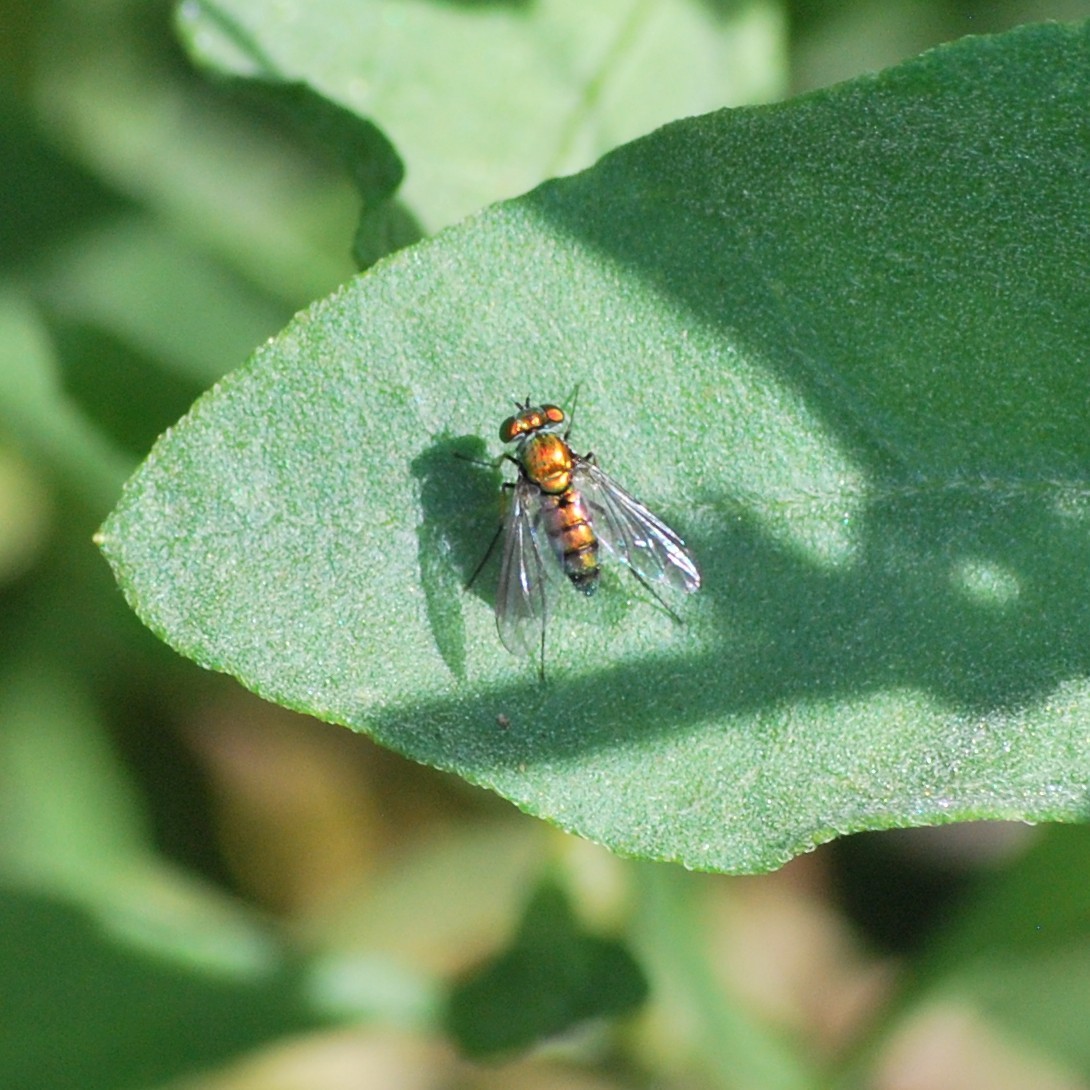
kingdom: Animalia
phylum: Arthropoda
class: Insecta
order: Diptera
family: Dolichopodidae
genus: Condylostylus
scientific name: Condylostylus longicornis
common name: Long-legged fly
